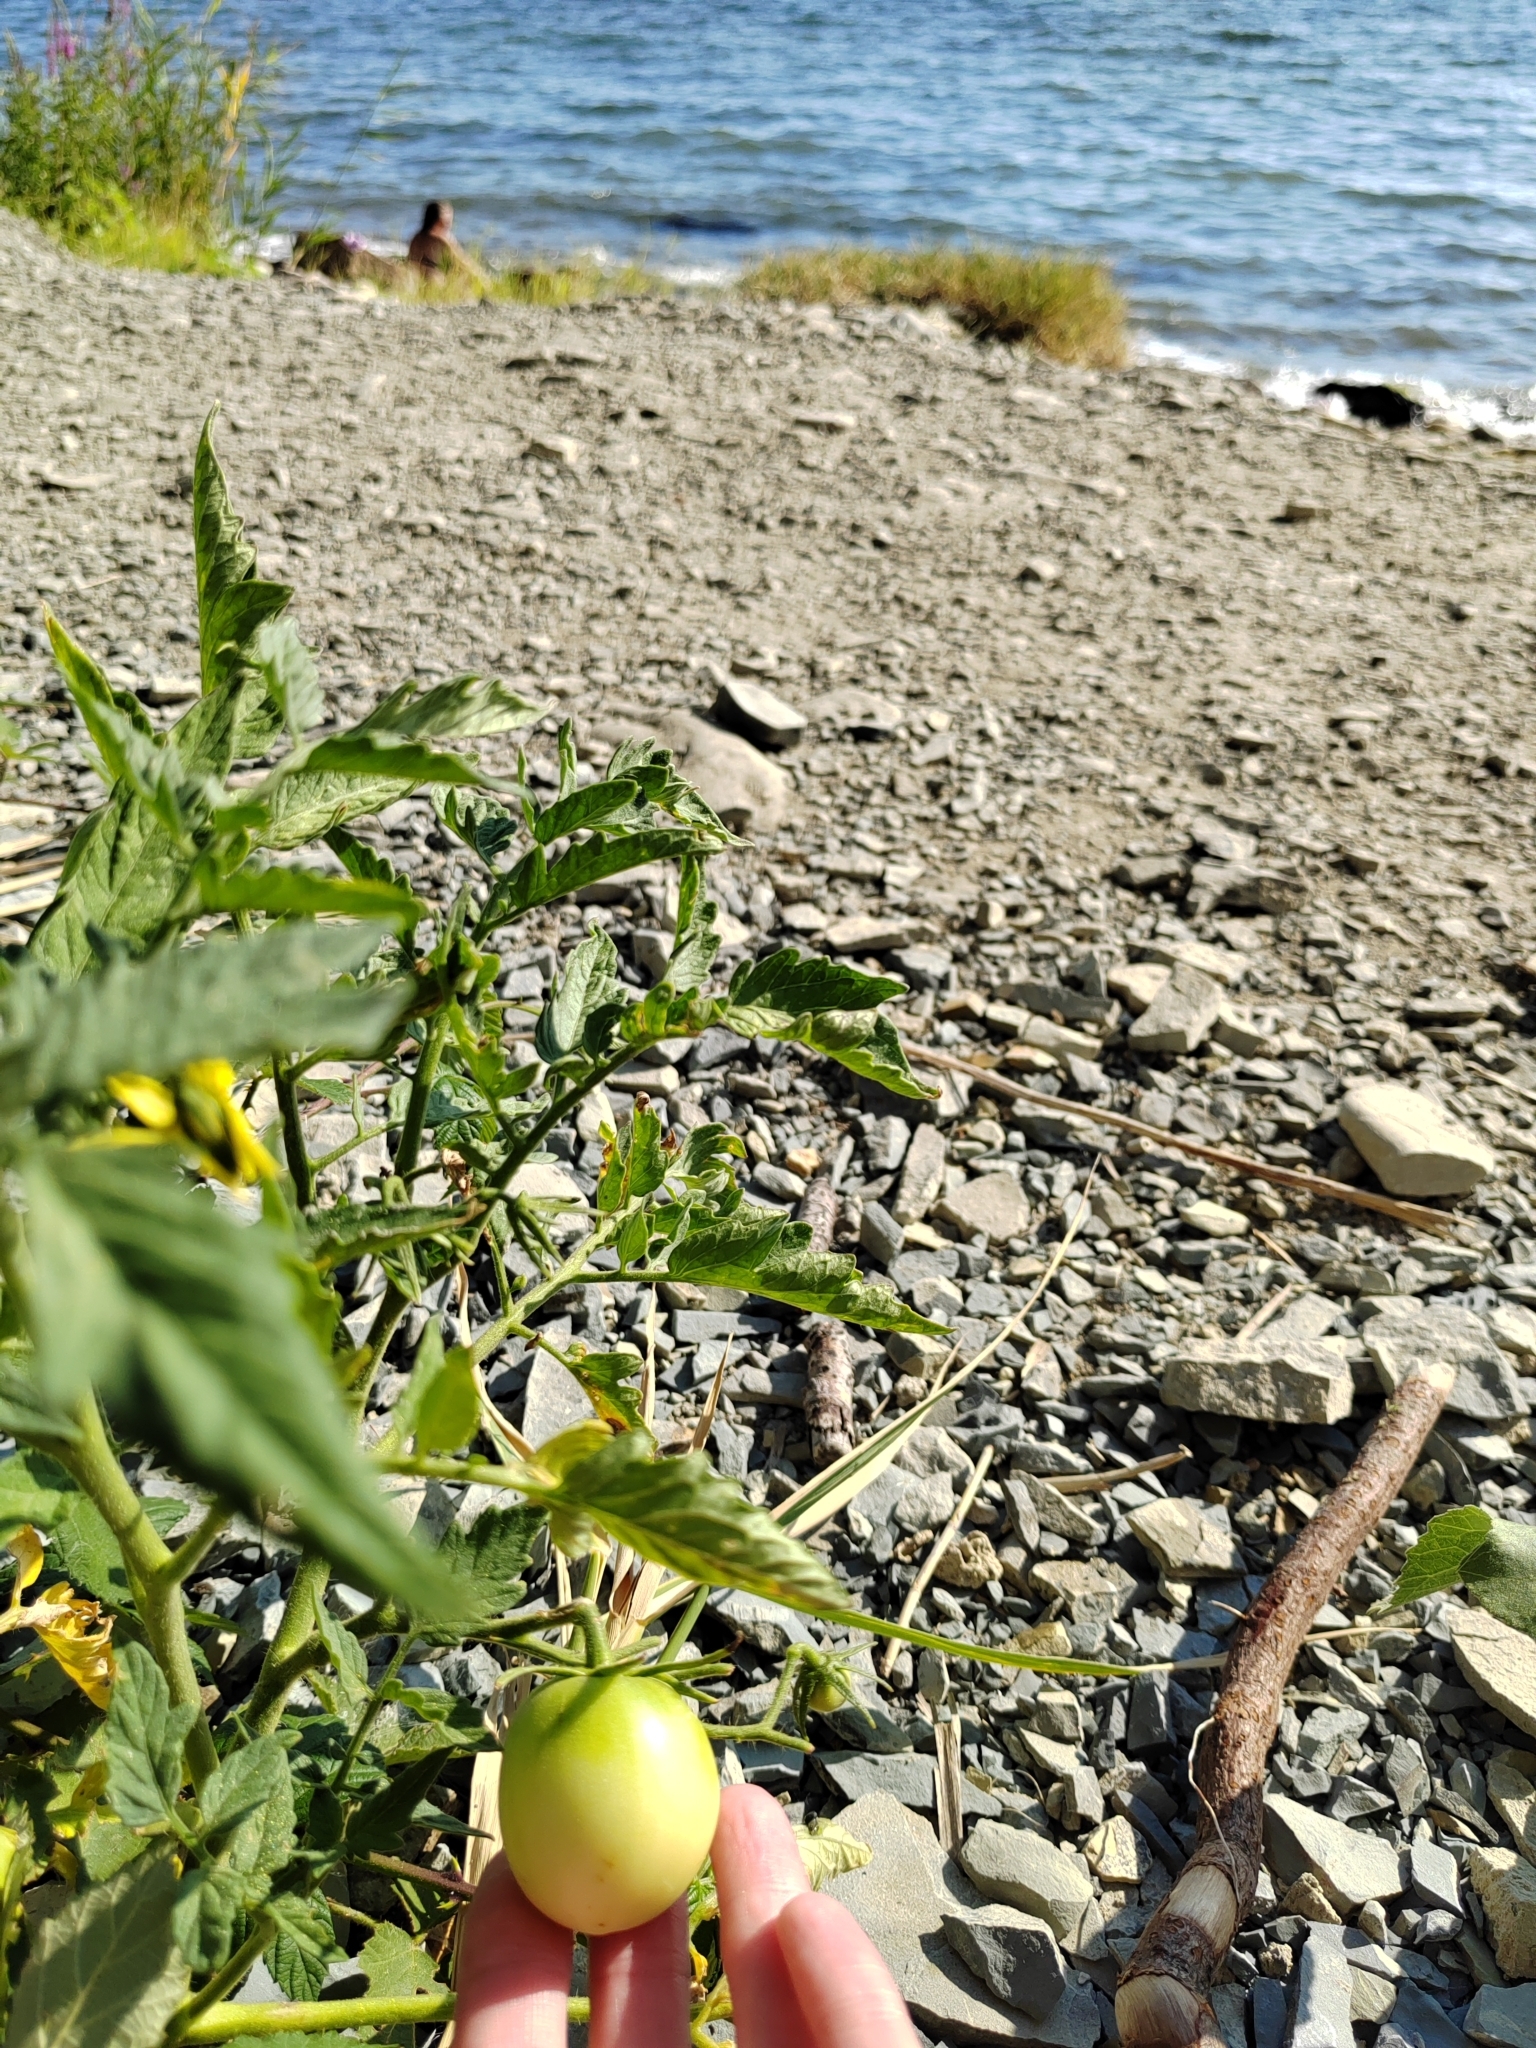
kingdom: Plantae
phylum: Tracheophyta
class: Magnoliopsida
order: Solanales
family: Solanaceae
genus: Solanum
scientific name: Solanum lycopersicum
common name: Garden tomato
